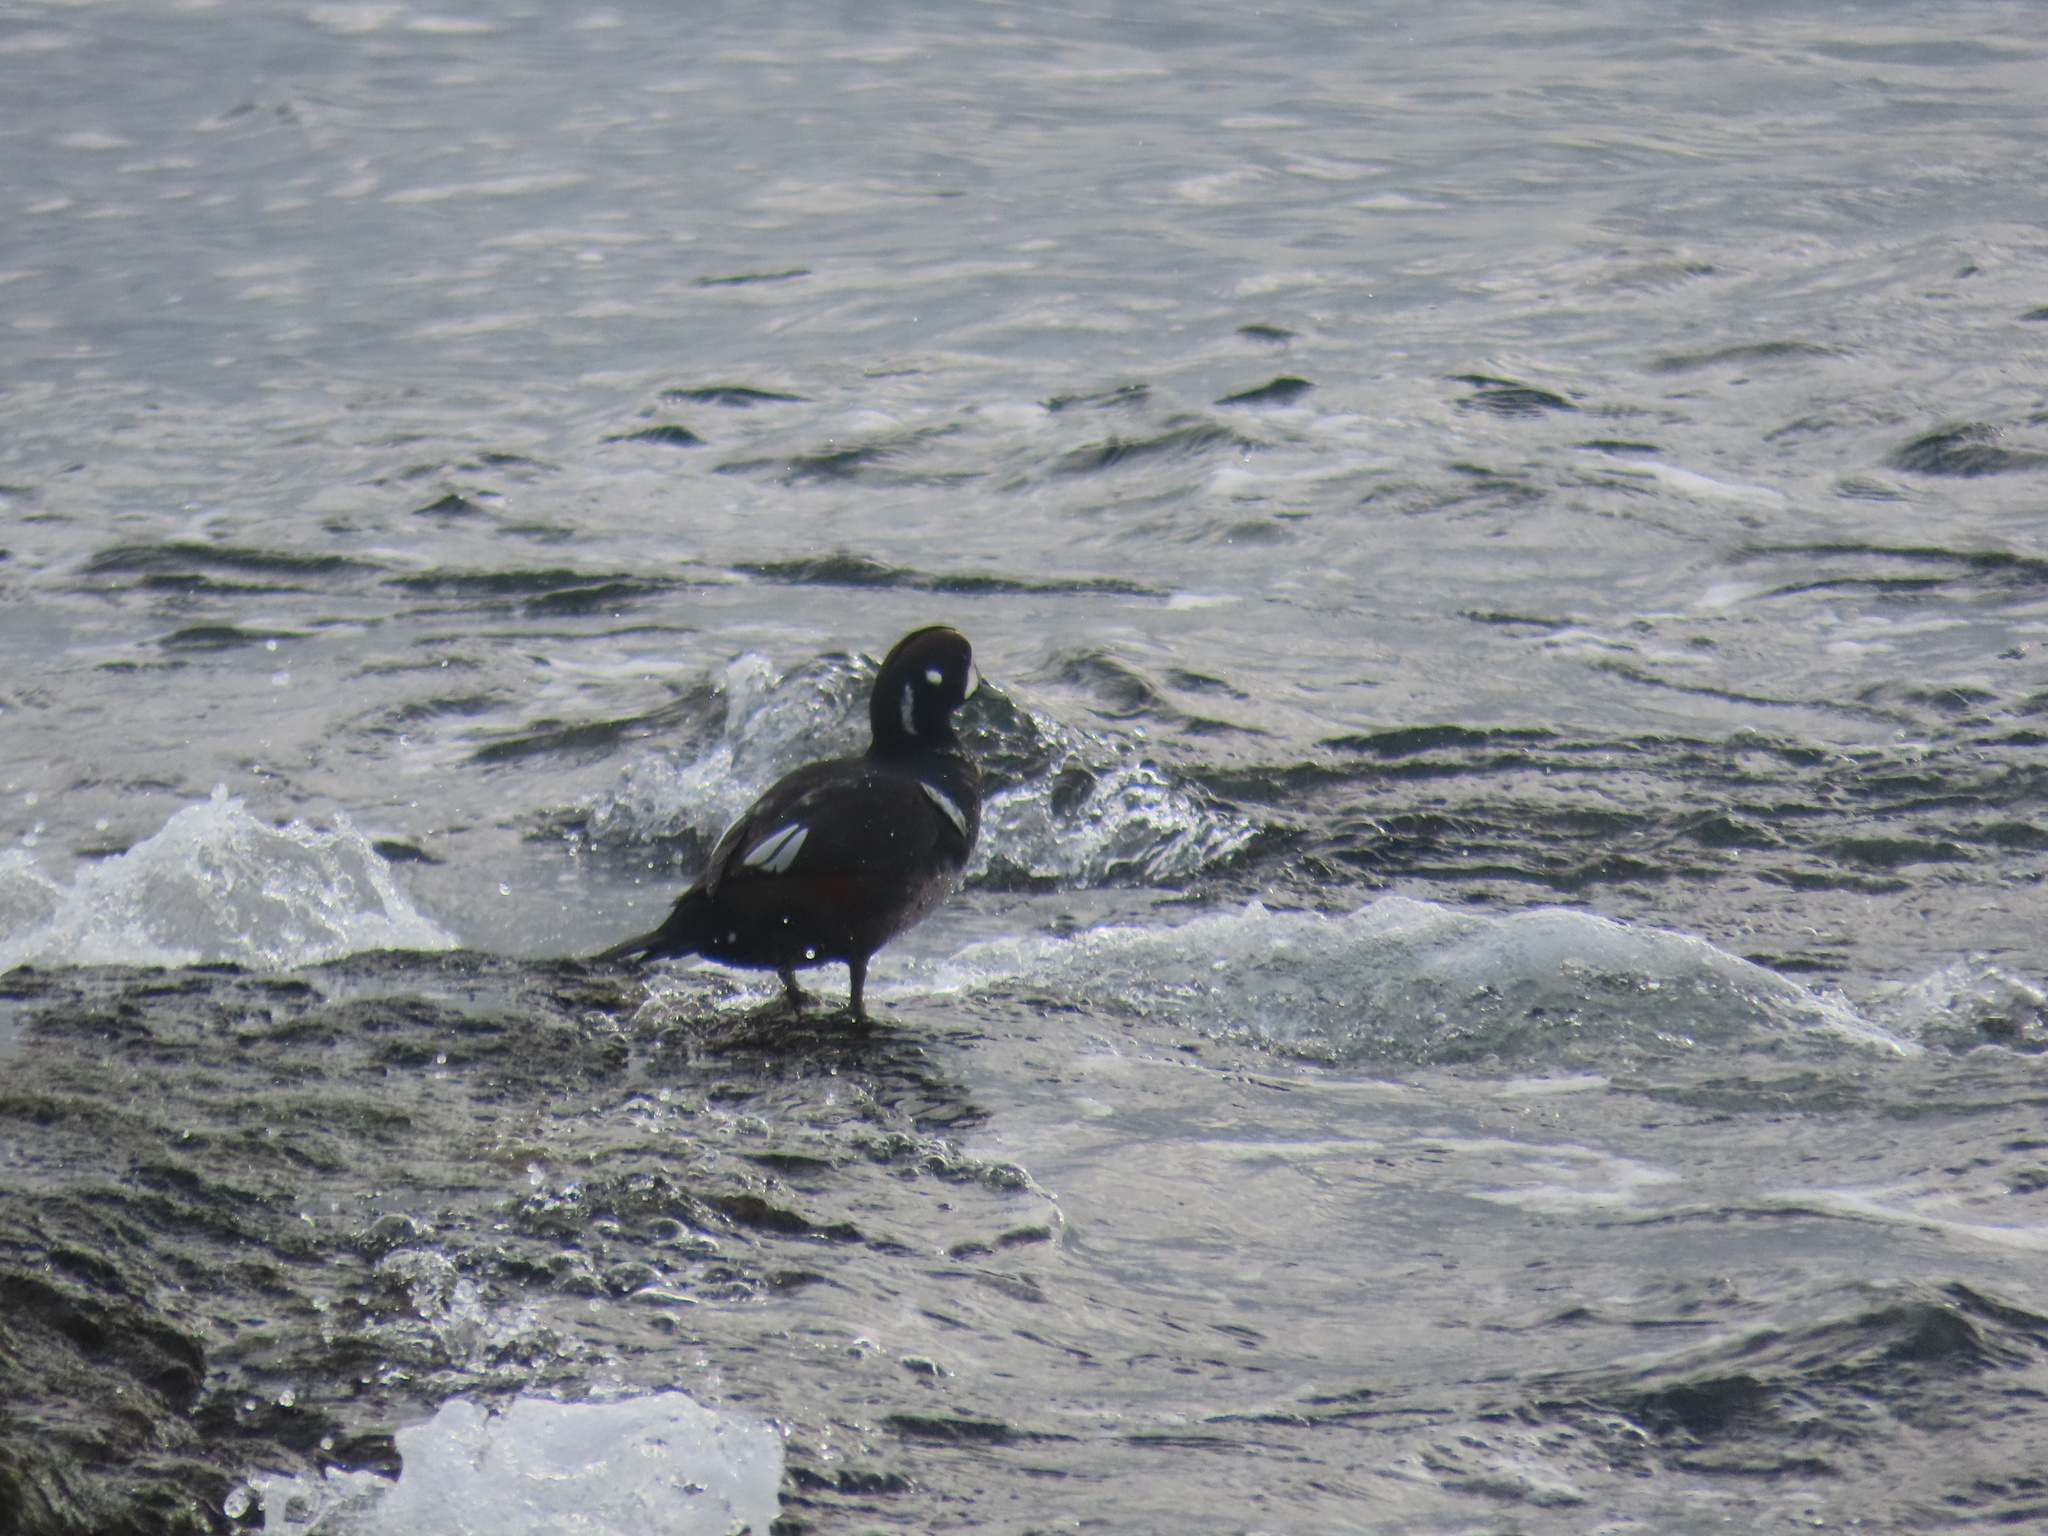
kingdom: Animalia
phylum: Chordata
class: Aves
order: Anseriformes
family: Anatidae
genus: Histrionicus
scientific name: Histrionicus histrionicus
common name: Harlequin duck
